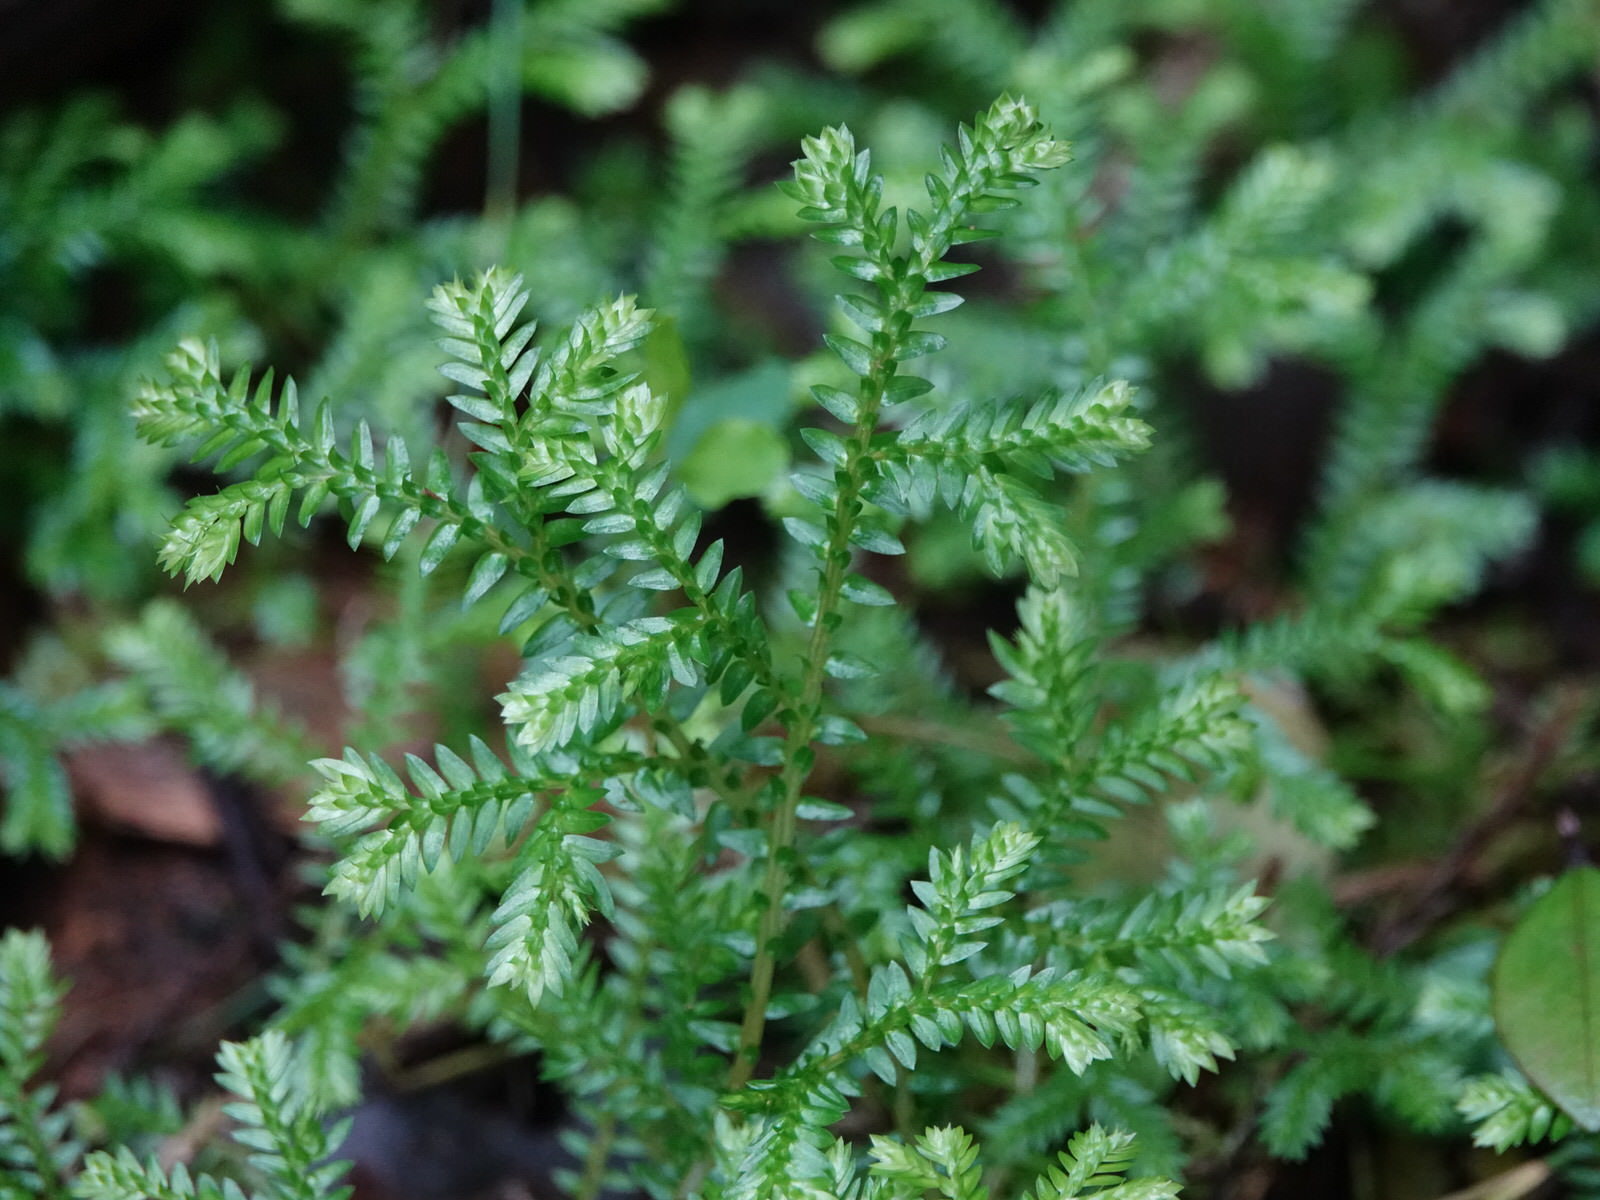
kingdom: Plantae
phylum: Tracheophyta
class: Lycopodiopsida
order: Selaginellales
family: Selaginellaceae
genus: Selaginella
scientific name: Selaginella kraussiana
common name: Krauss' spikemoss
